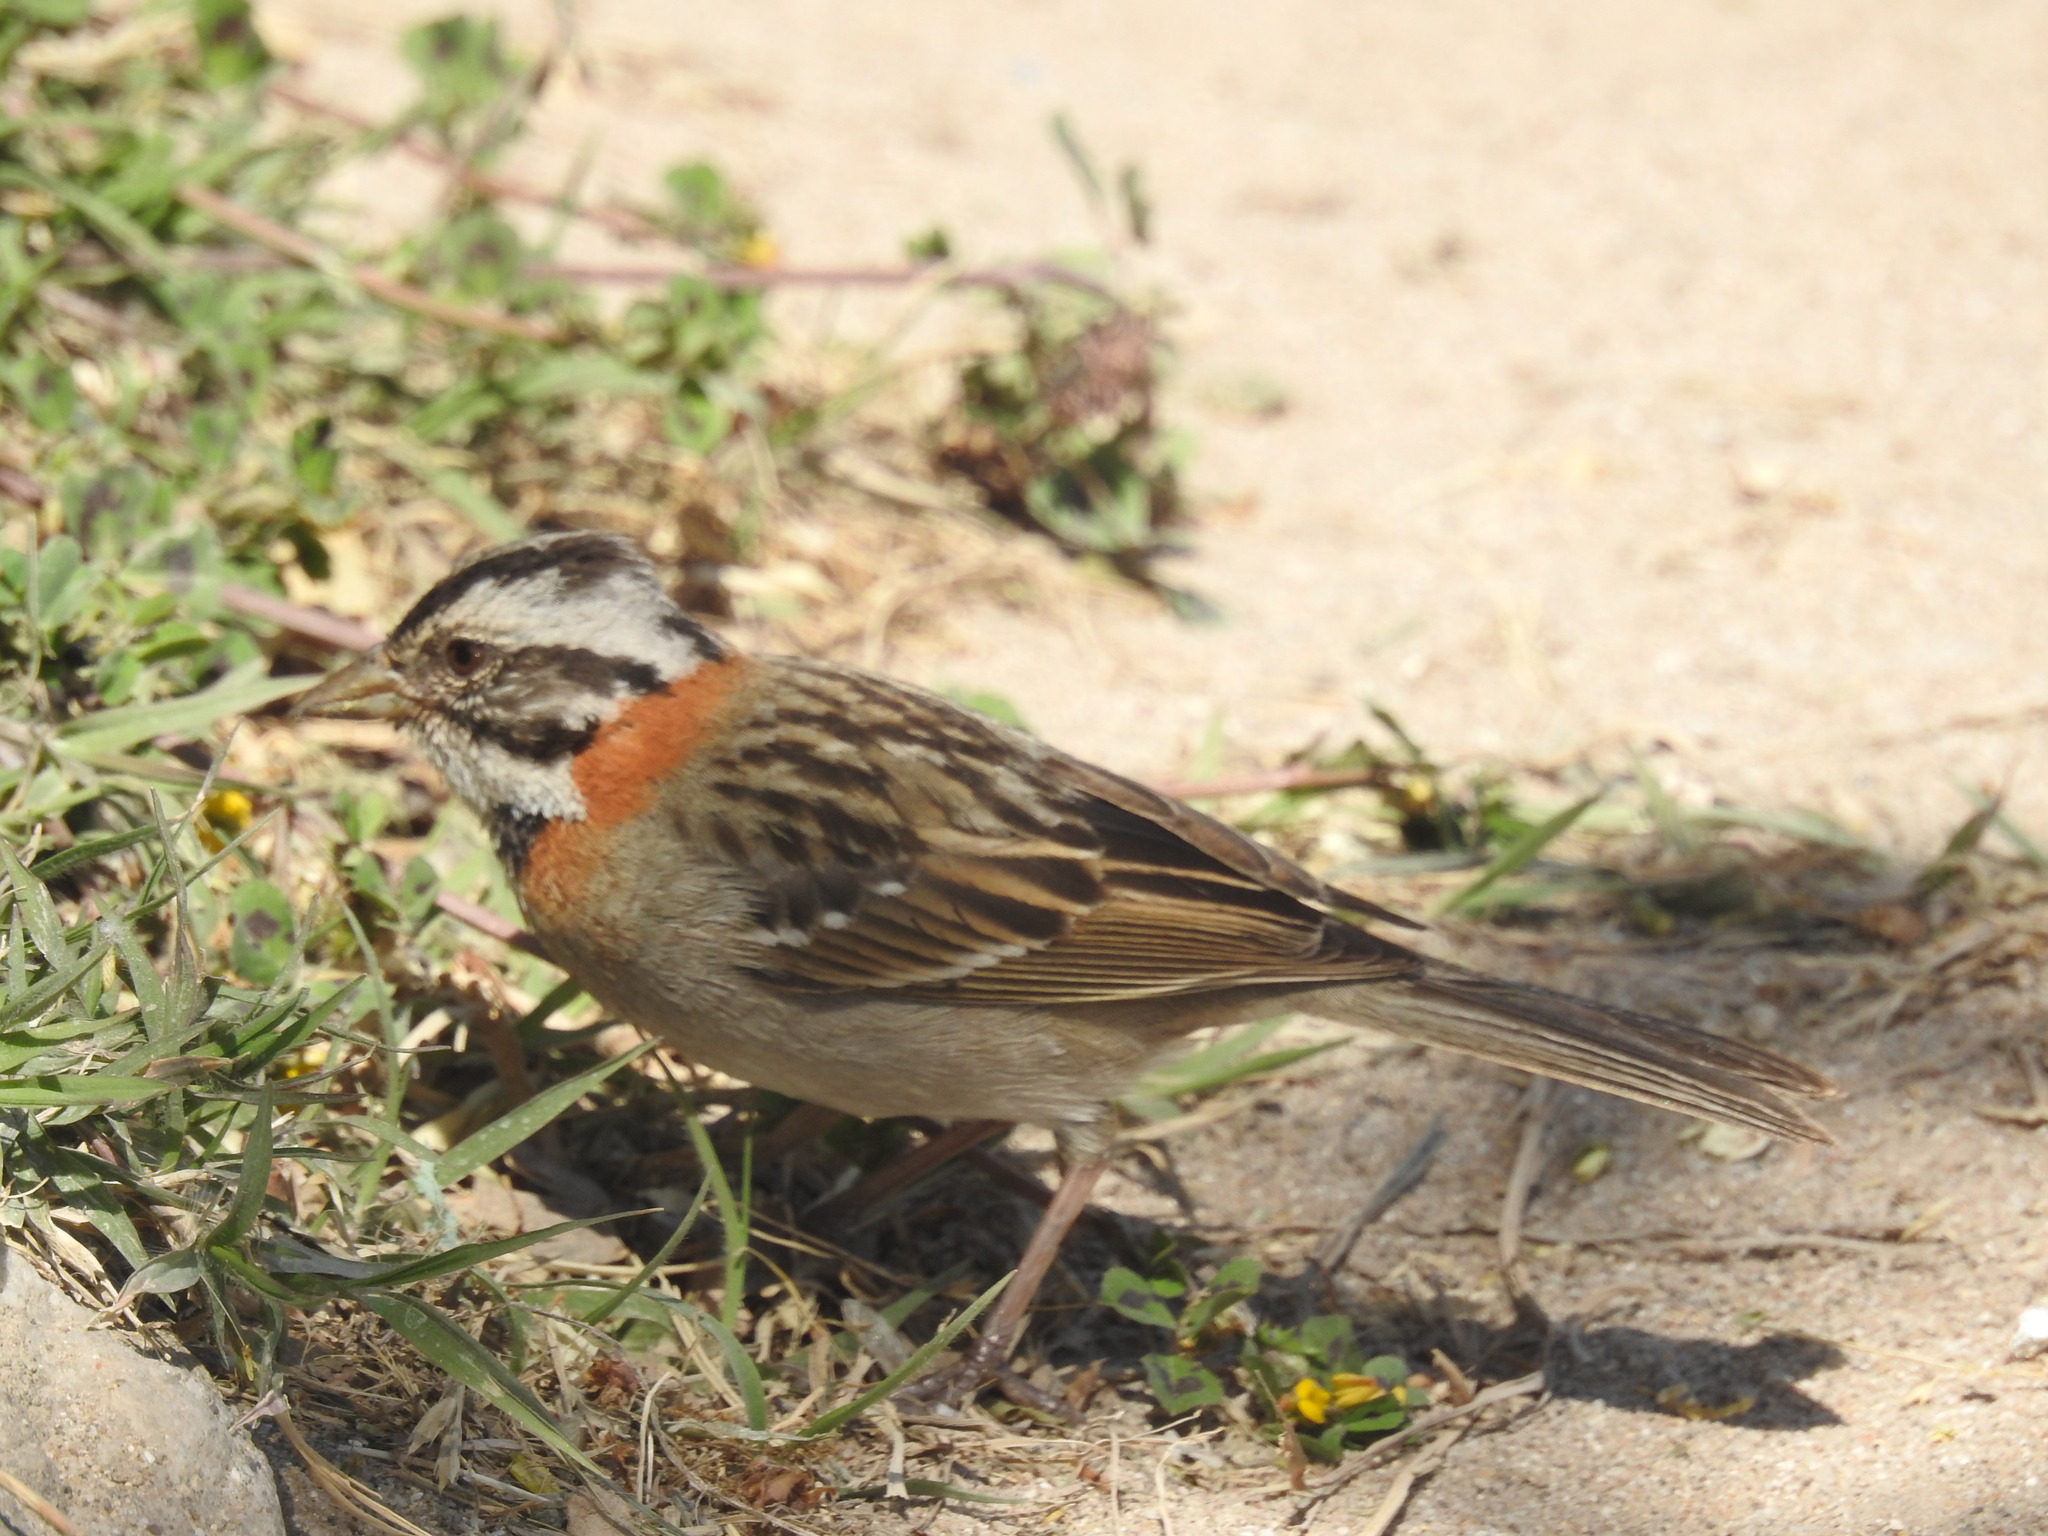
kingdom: Animalia
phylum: Chordata
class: Aves
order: Passeriformes
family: Passerellidae
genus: Zonotrichia
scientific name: Zonotrichia capensis
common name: Rufous-collared sparrow
